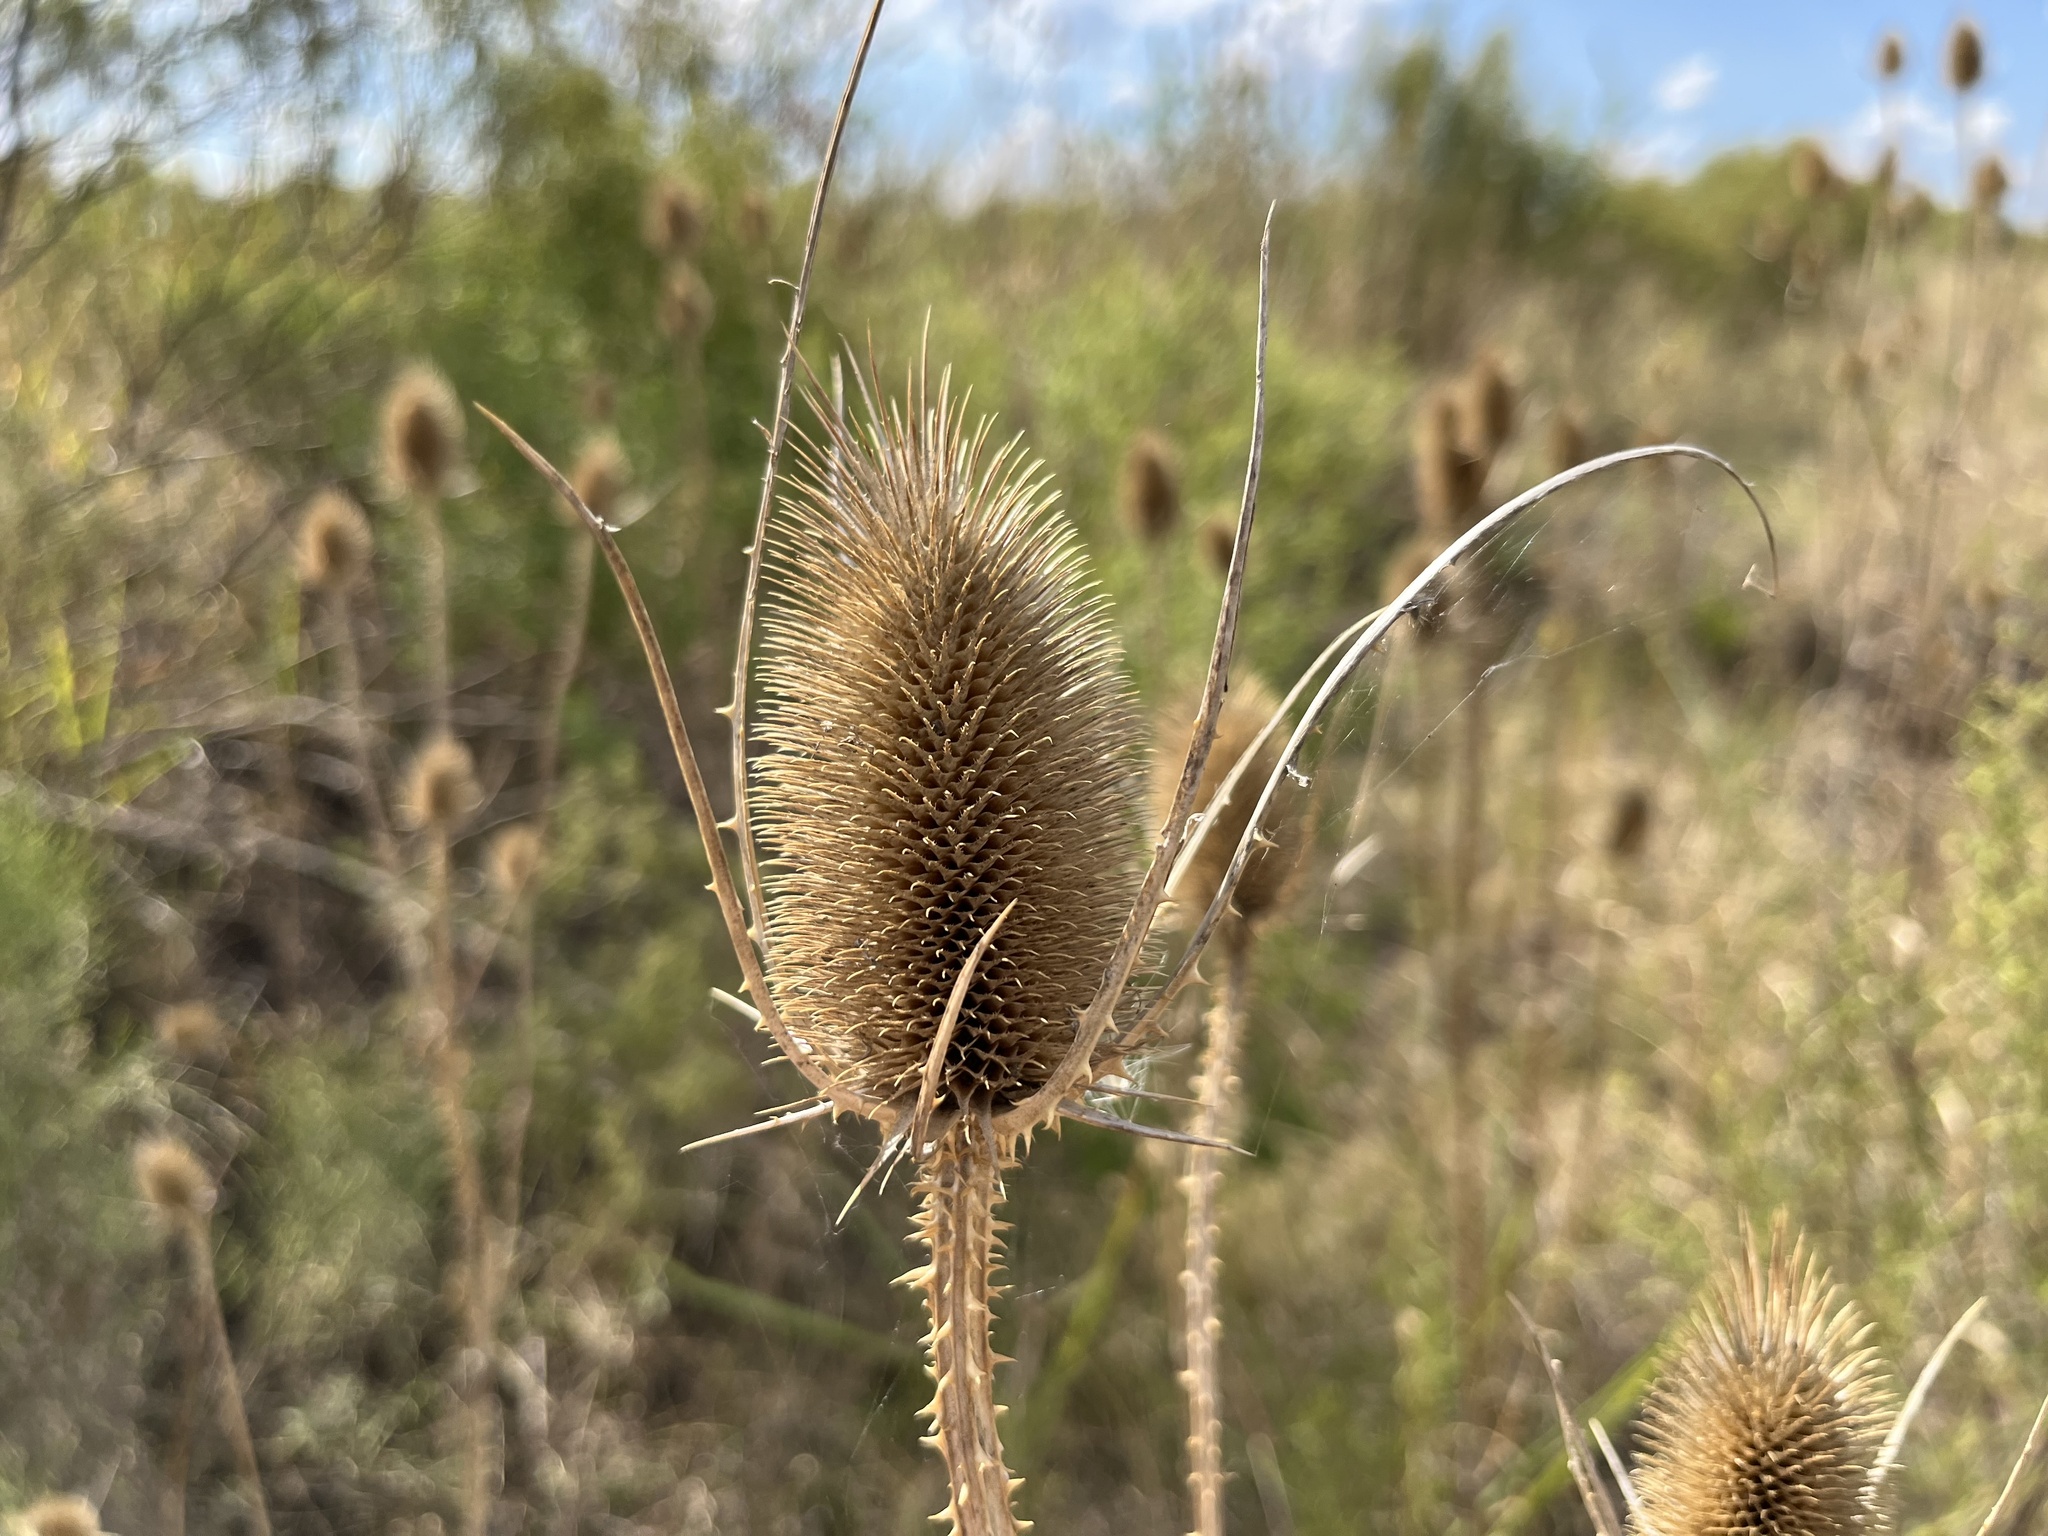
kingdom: Plantae
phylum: Tracheophyta
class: Magnoliopsida
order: Dipsacales
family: Caprifoliaceae
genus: Dipsacus
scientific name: Dipsacus fullonum
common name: Teasel
